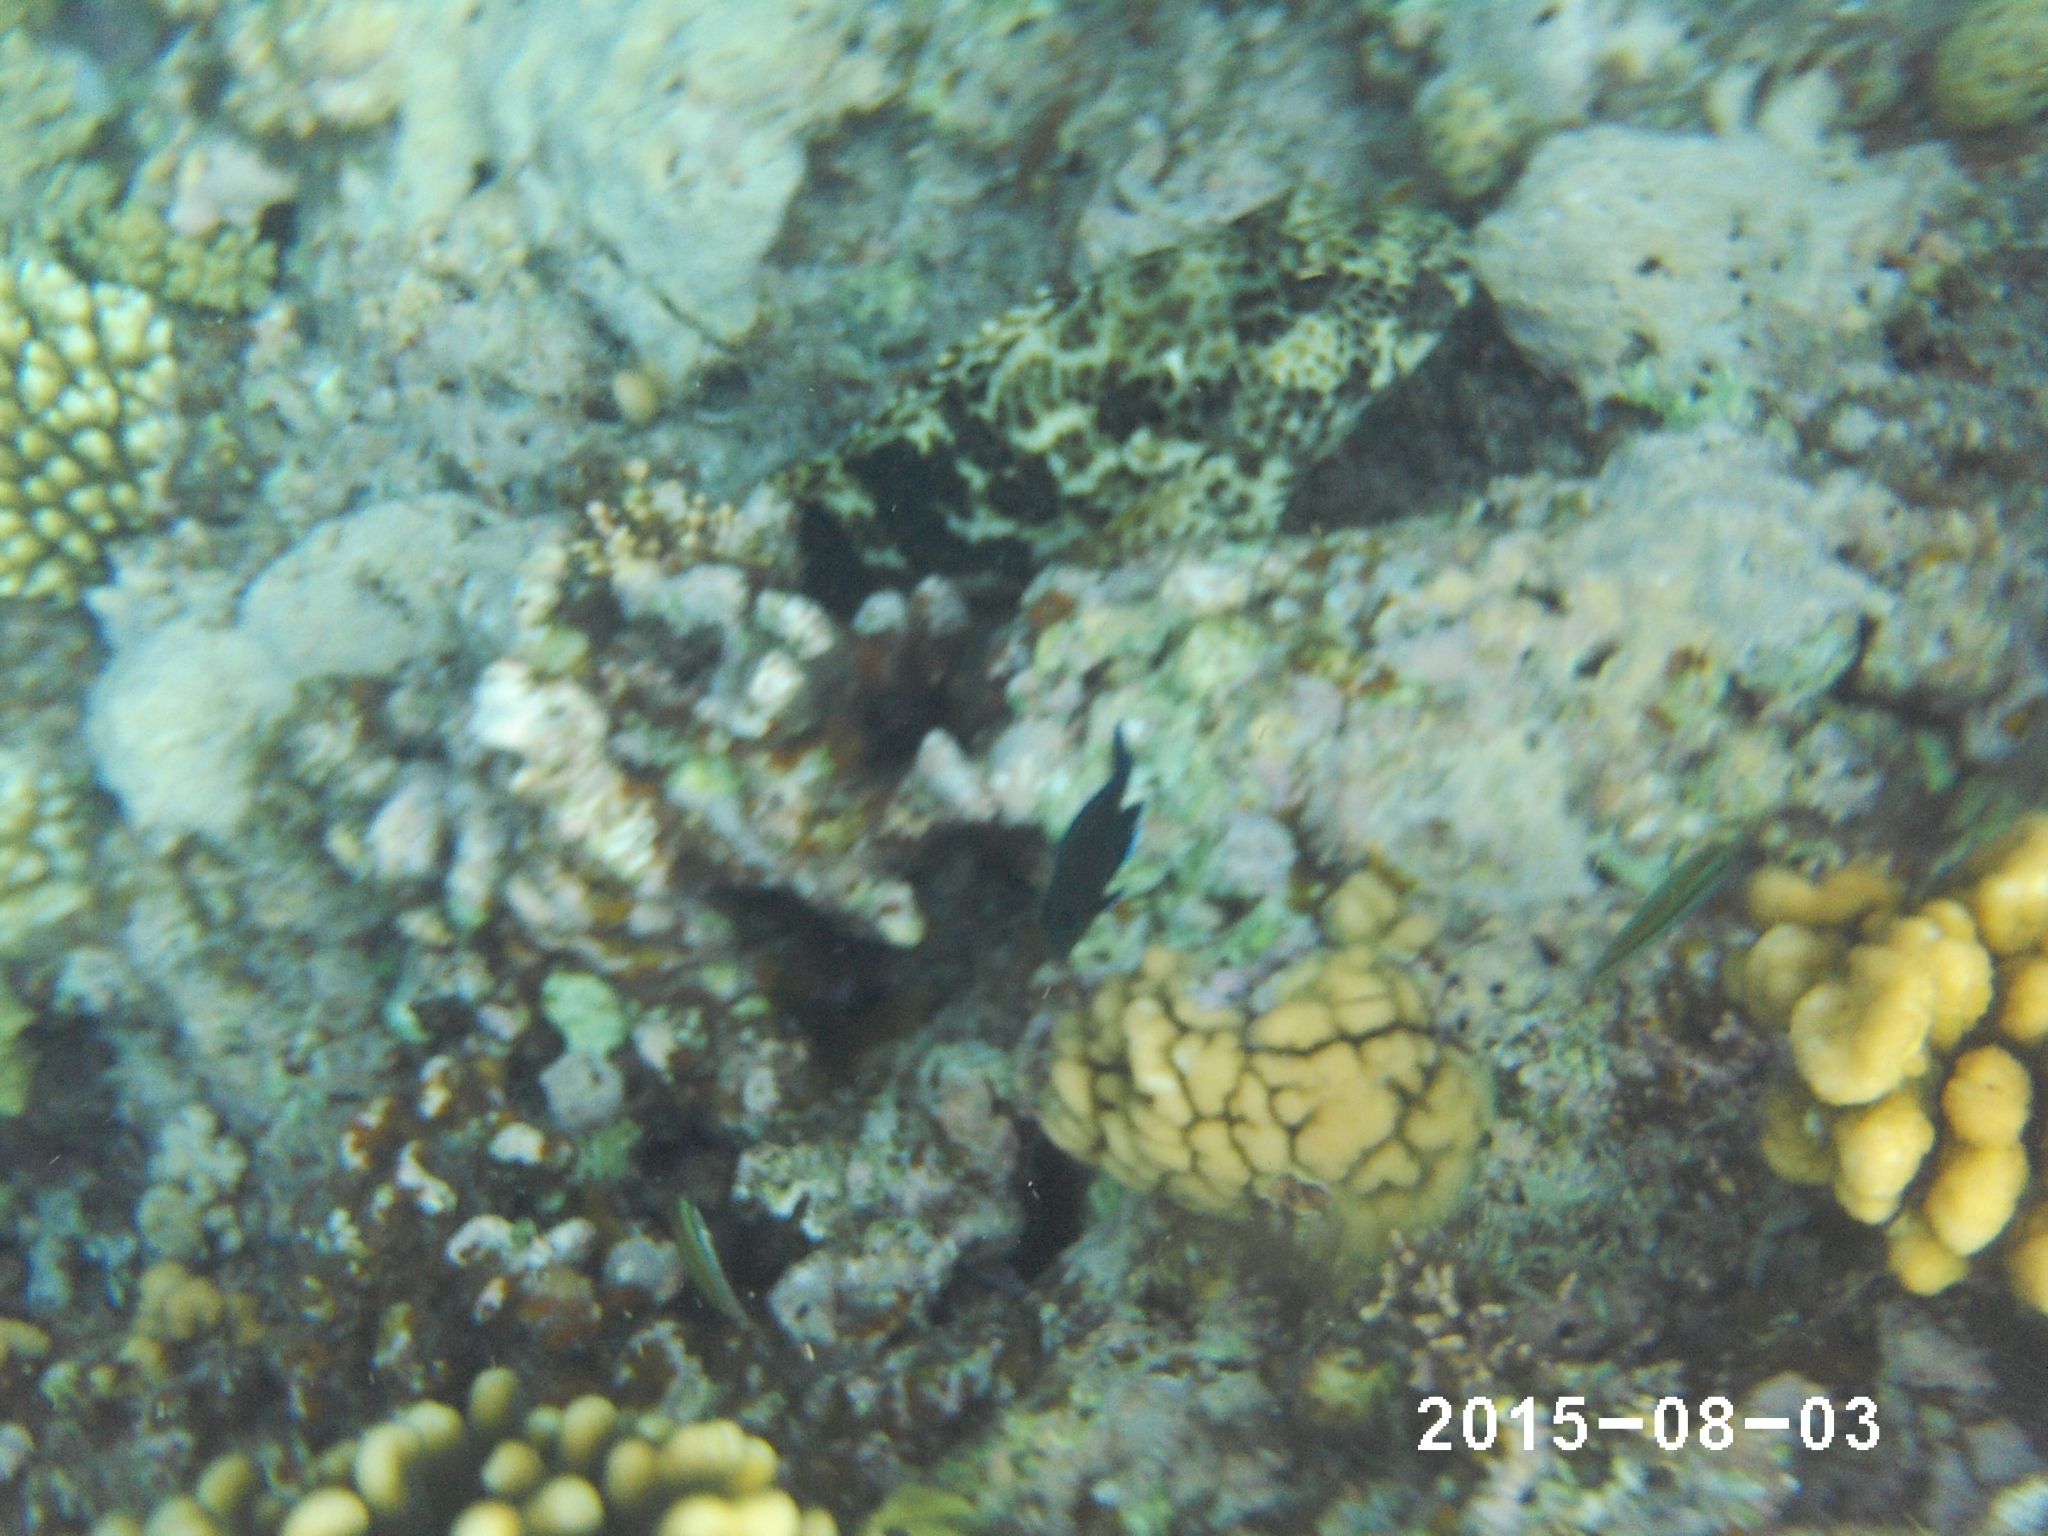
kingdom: Animalia
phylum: Chordata
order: Perciformes
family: Cirrhitidae
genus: Cirrhitus
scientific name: Cirrhitus pinnulatus
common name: Stocky hawkfish
